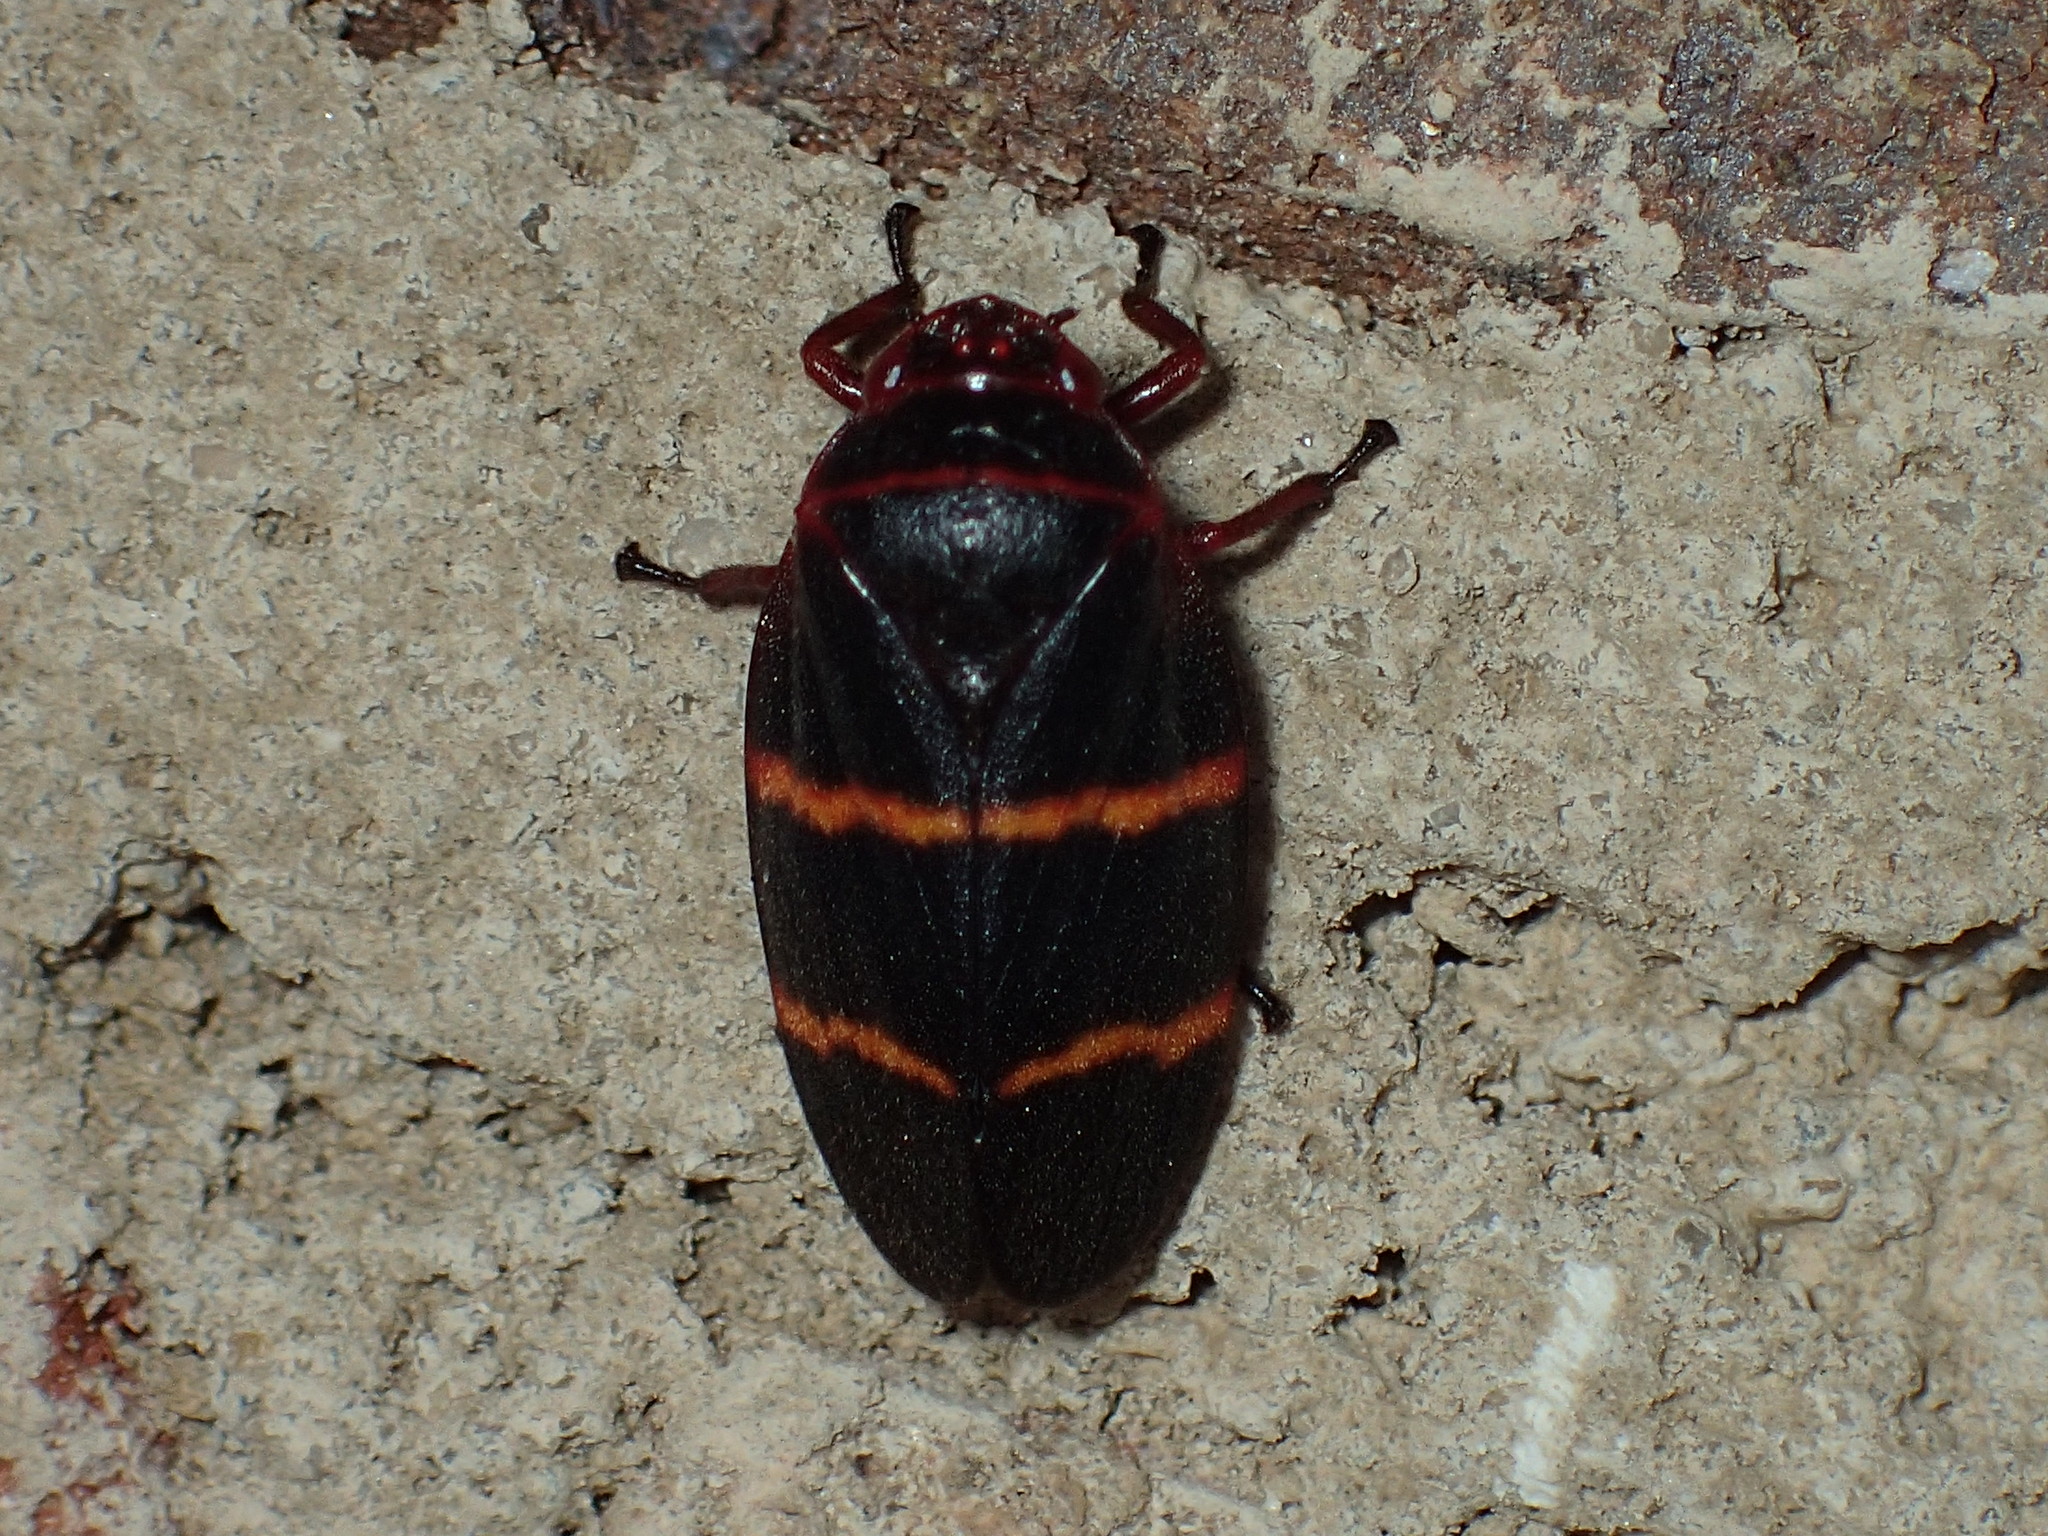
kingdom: Animalia
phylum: Arthropoda
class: Insecta
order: Hemiptera
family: Cercopidae
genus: Prosapia
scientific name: Prosapia bicincta
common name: Twolined spittlebug
